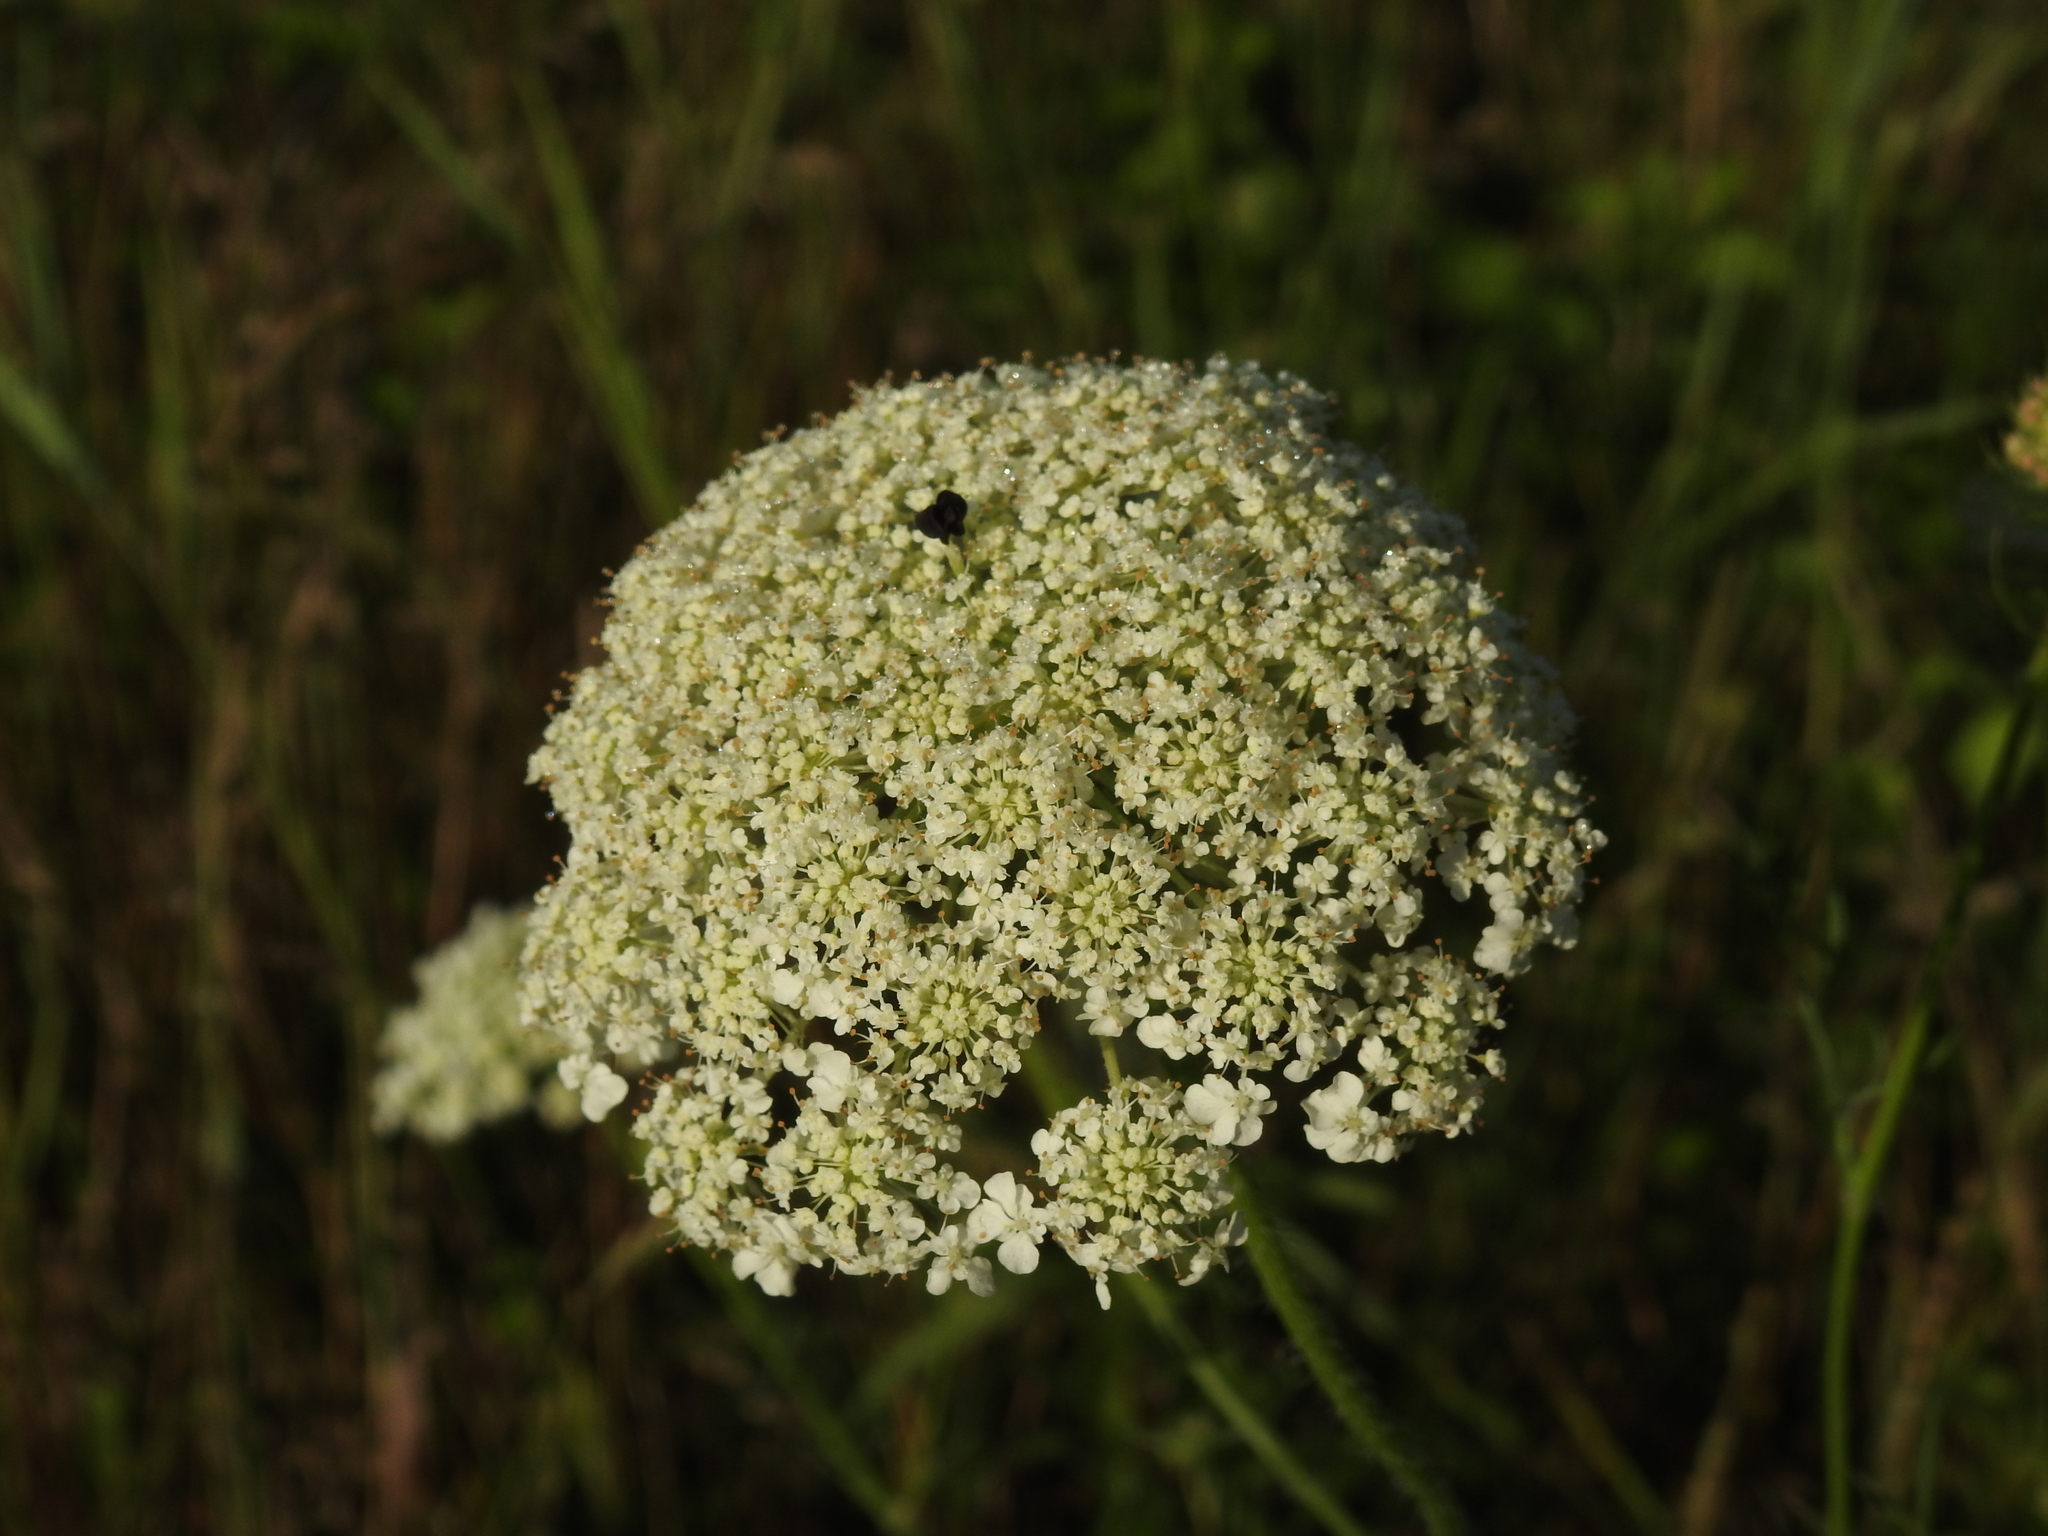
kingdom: Plantae
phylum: Tracheophyta
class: Magnoliopsida
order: Apiales
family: Apiaceae
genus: Daucus
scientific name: Daucus carota
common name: Wild carrot
